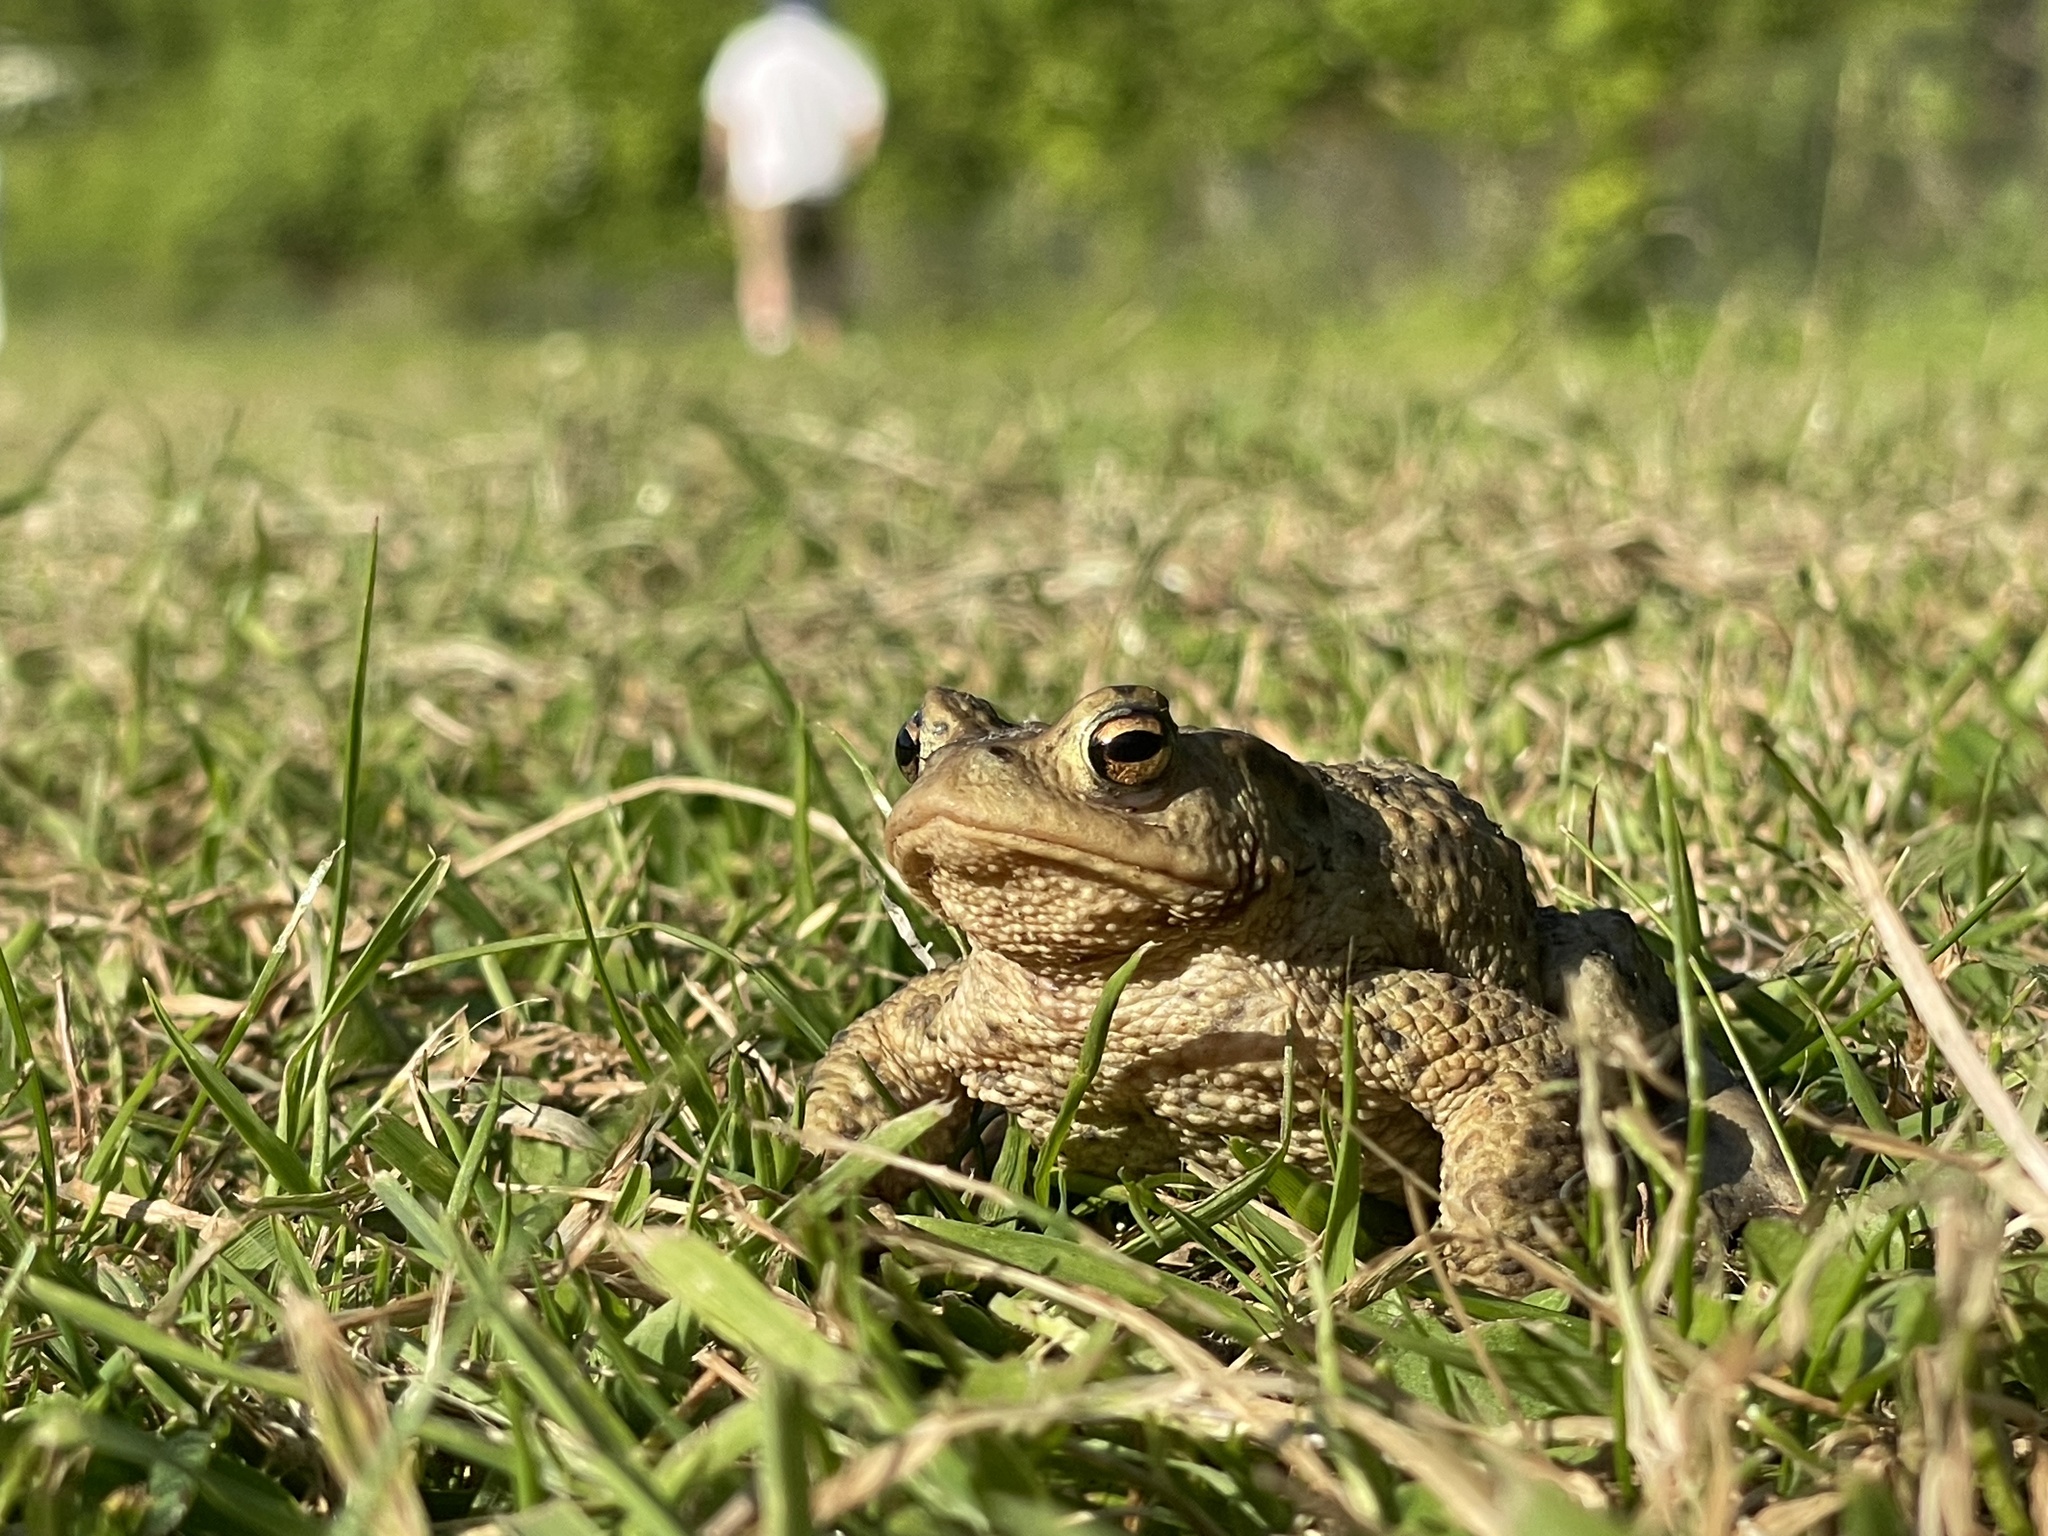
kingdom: Animalia
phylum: Chordata
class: Amphibia
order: Anura
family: Bufonidae
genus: Bufo
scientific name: Bufo bufo
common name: Common toad
